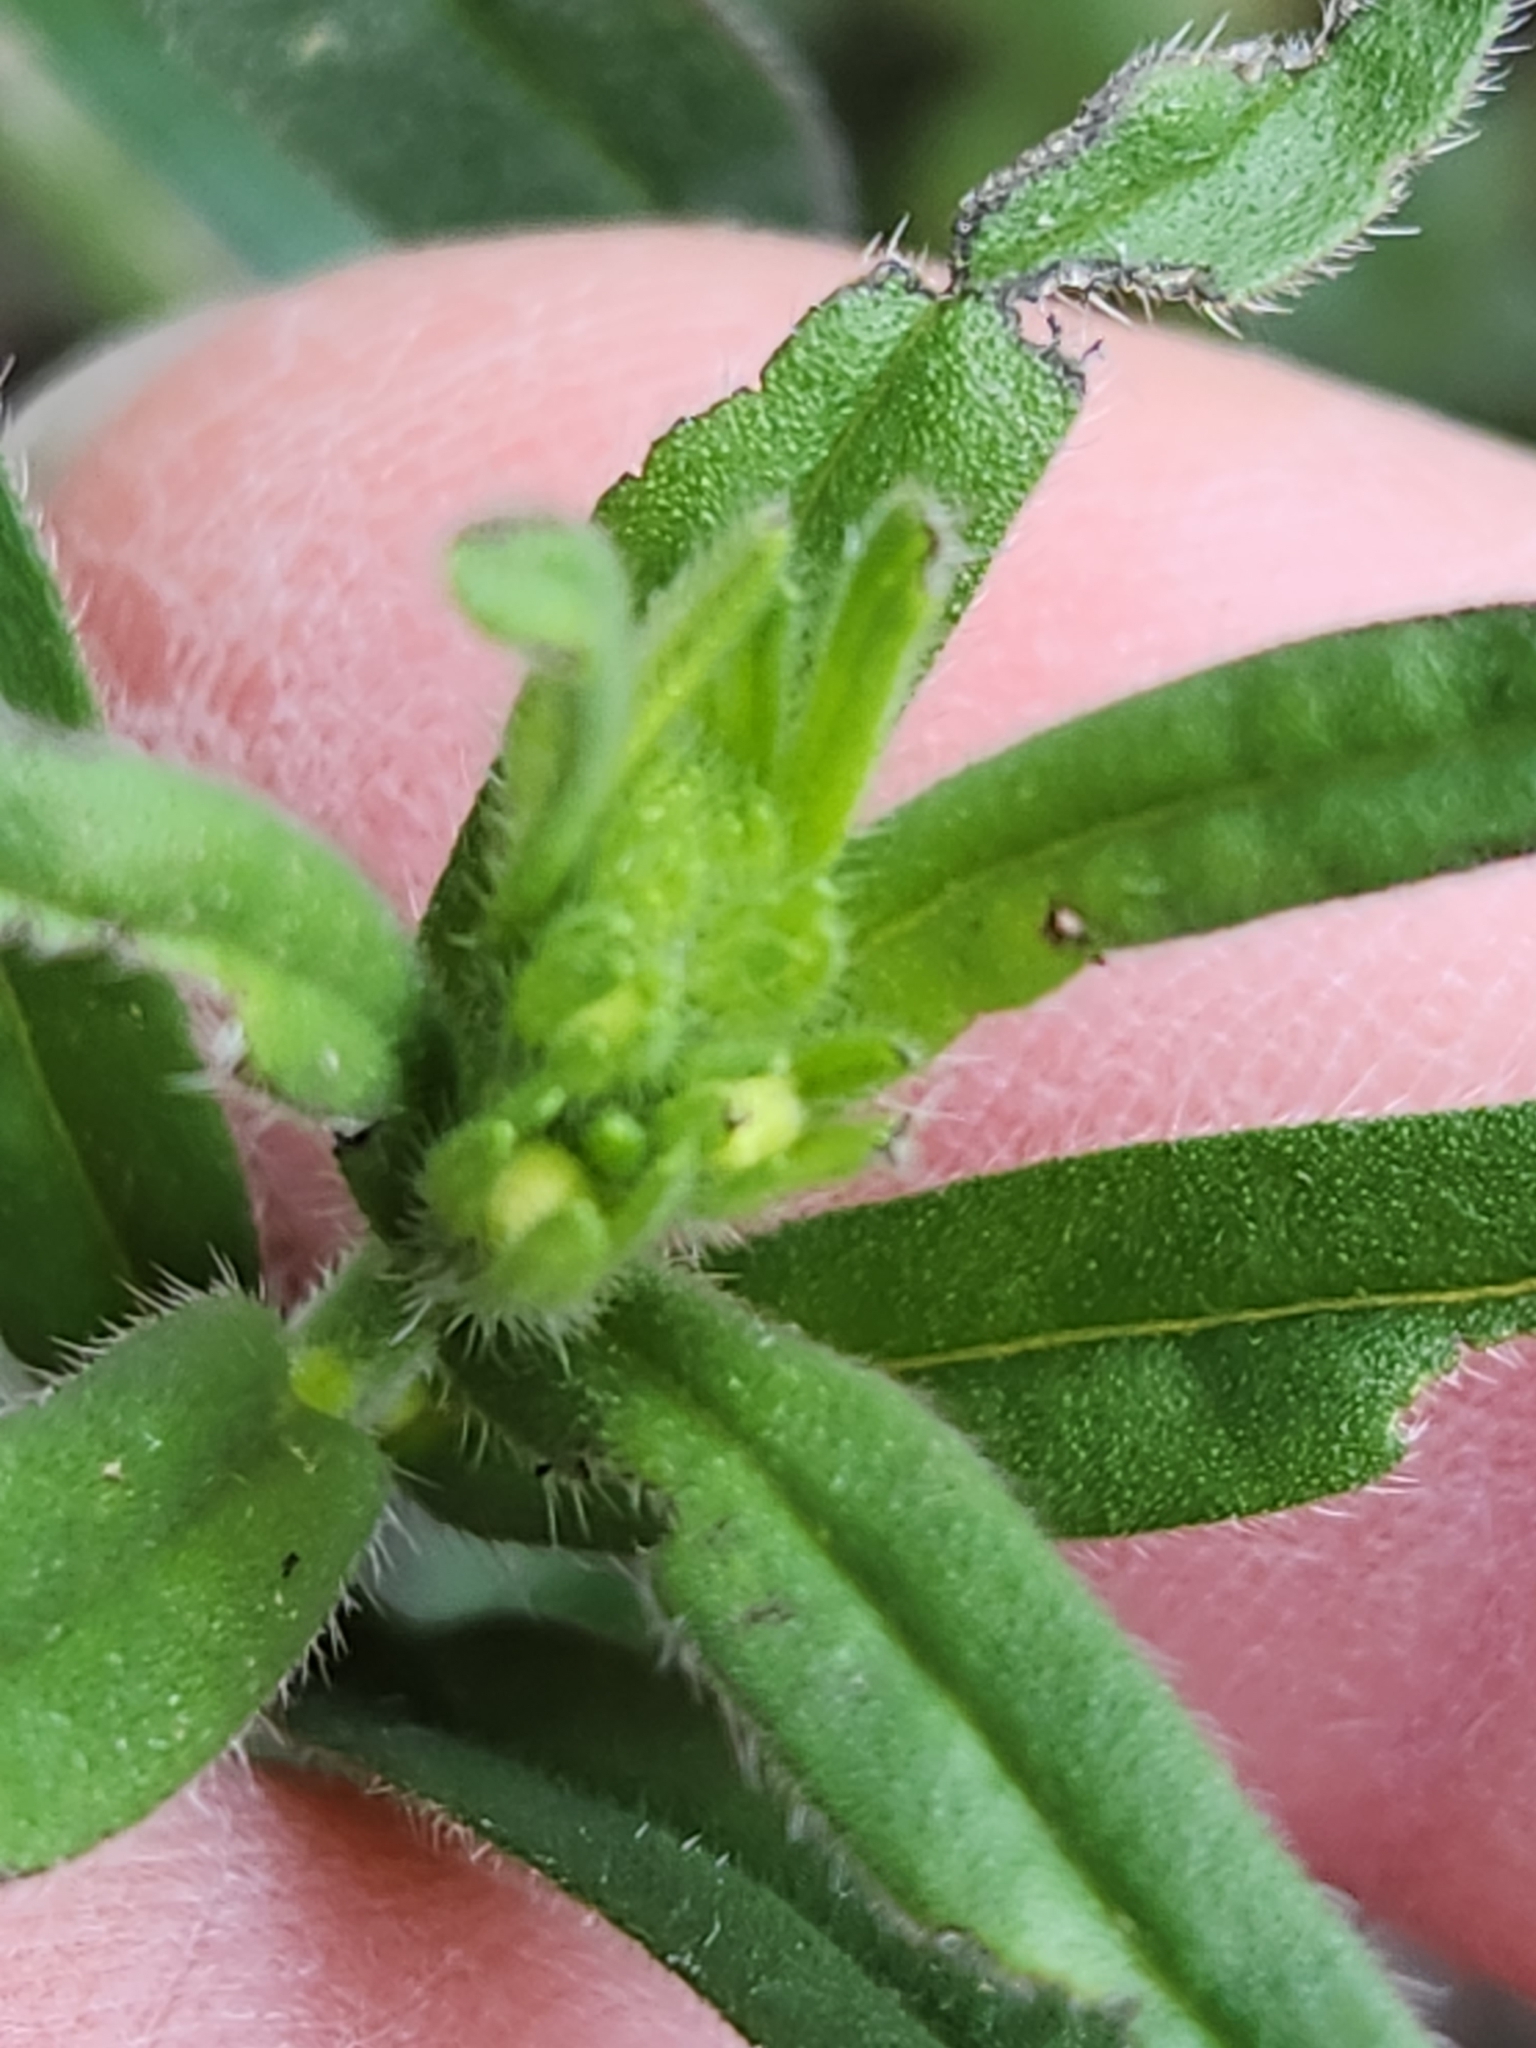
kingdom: Plantae
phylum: Tracheophyta
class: Magnoliopsida
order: Boraginales
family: Boraginaceae
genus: Lithospermum
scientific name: Lithospermum mirabile
